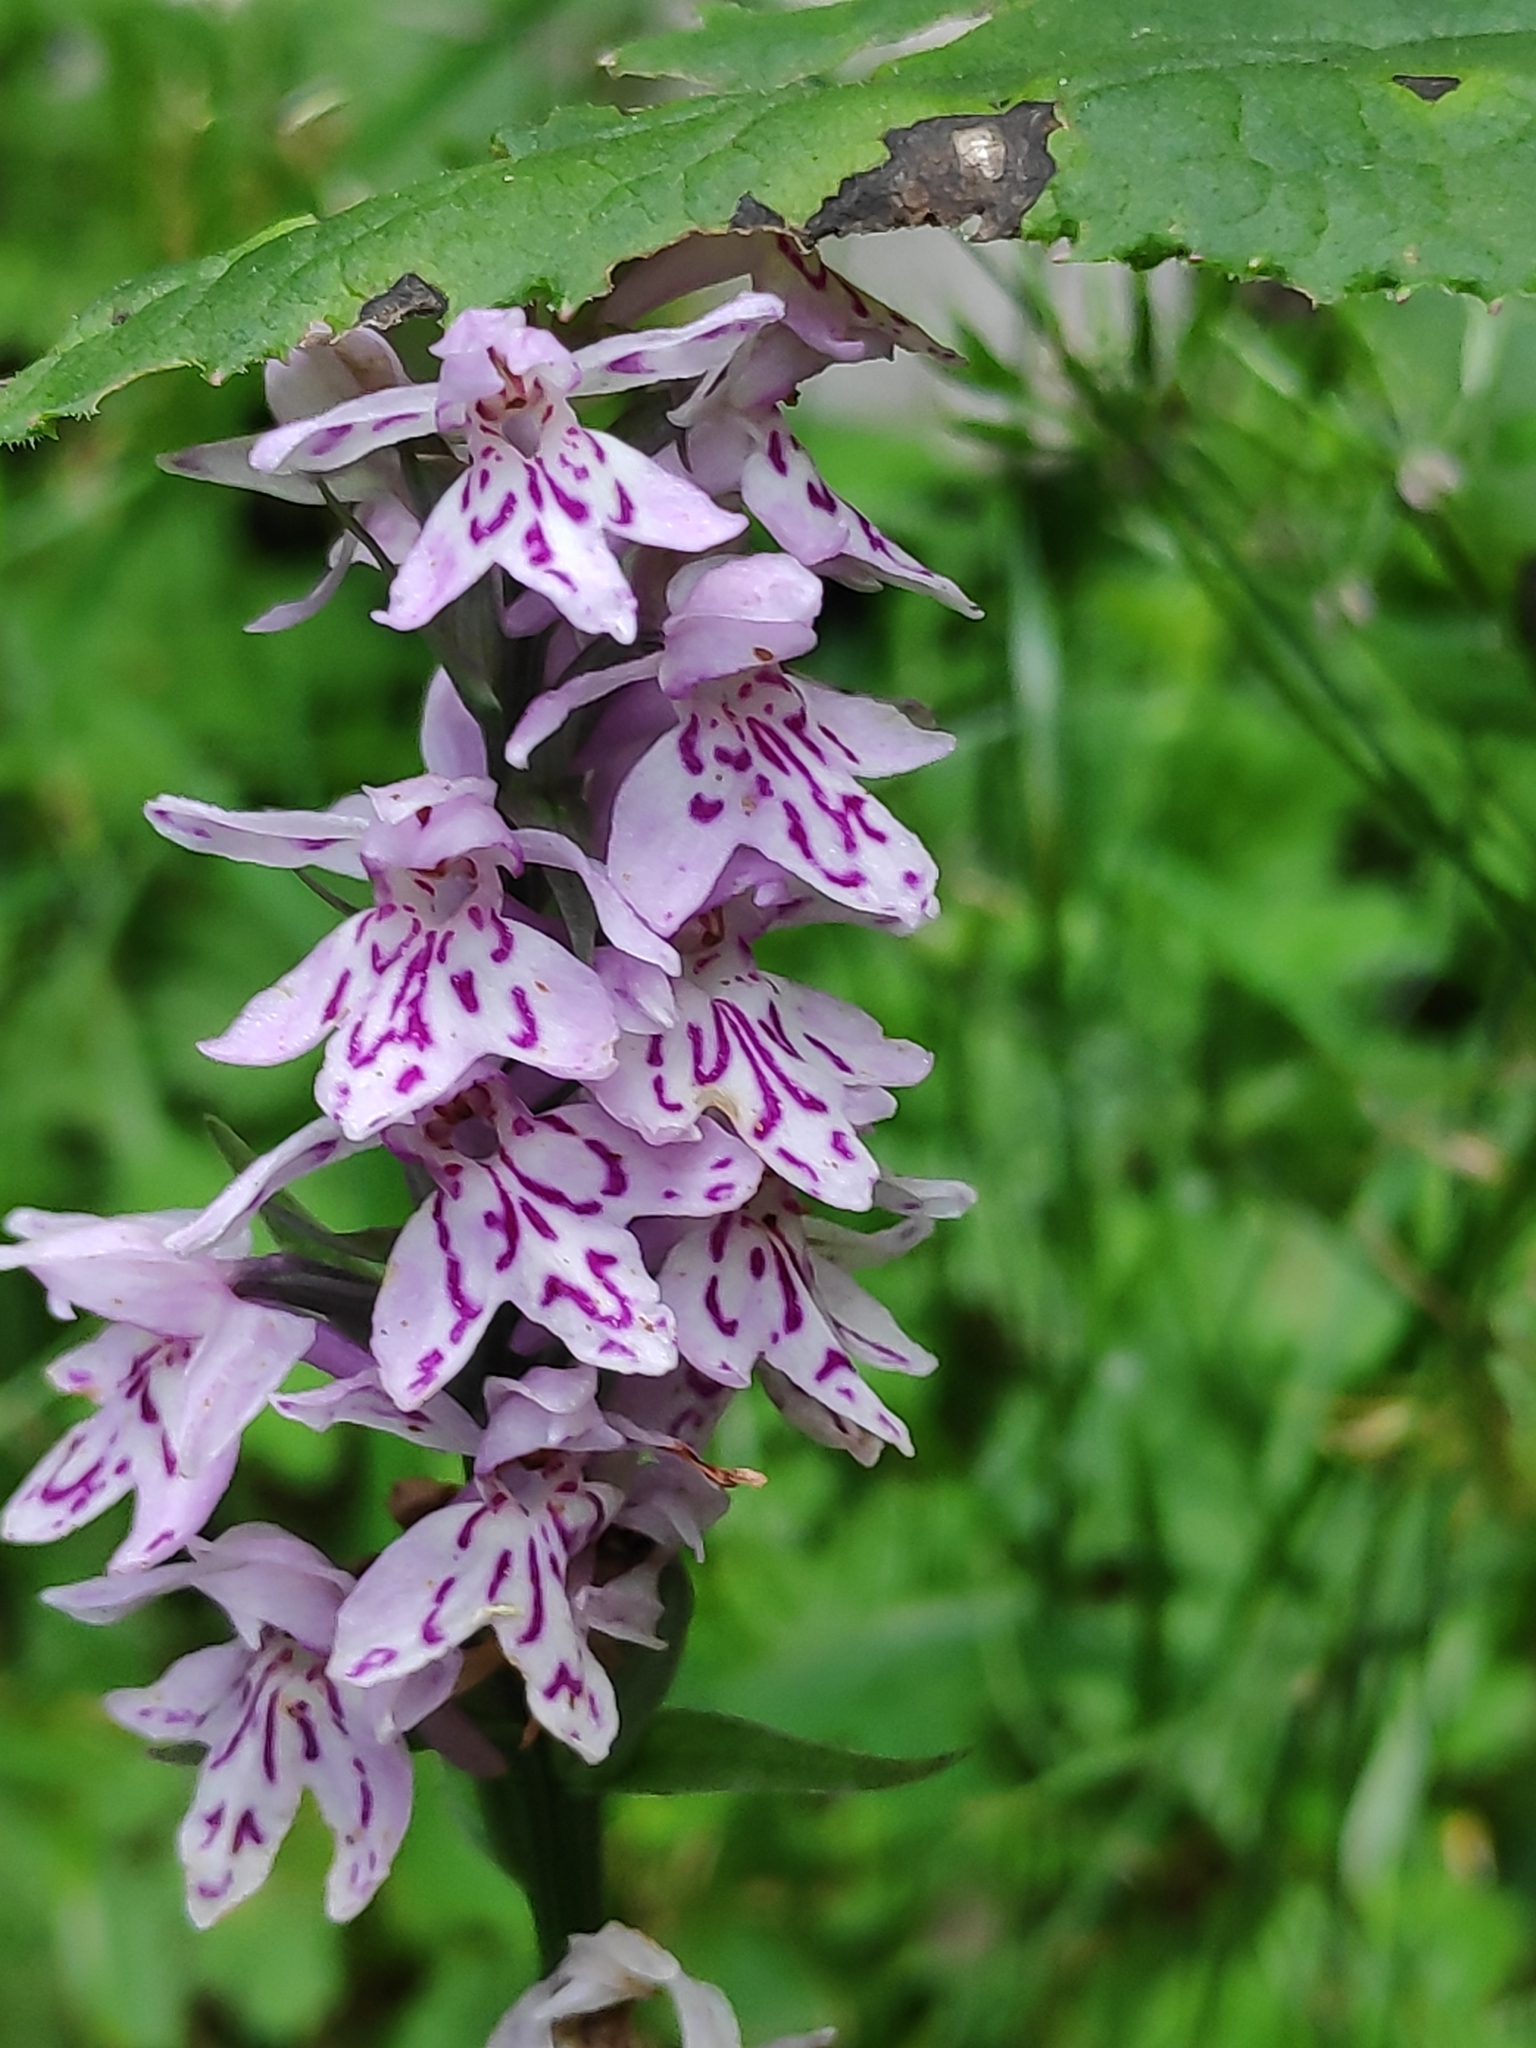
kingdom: Plantae
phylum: Tracheophyta
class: Liliopsida
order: Asparagales
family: Orchidaceae
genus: Dactylorhiza
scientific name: Dactylorhiza maculata
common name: Heath spotted-orchid
